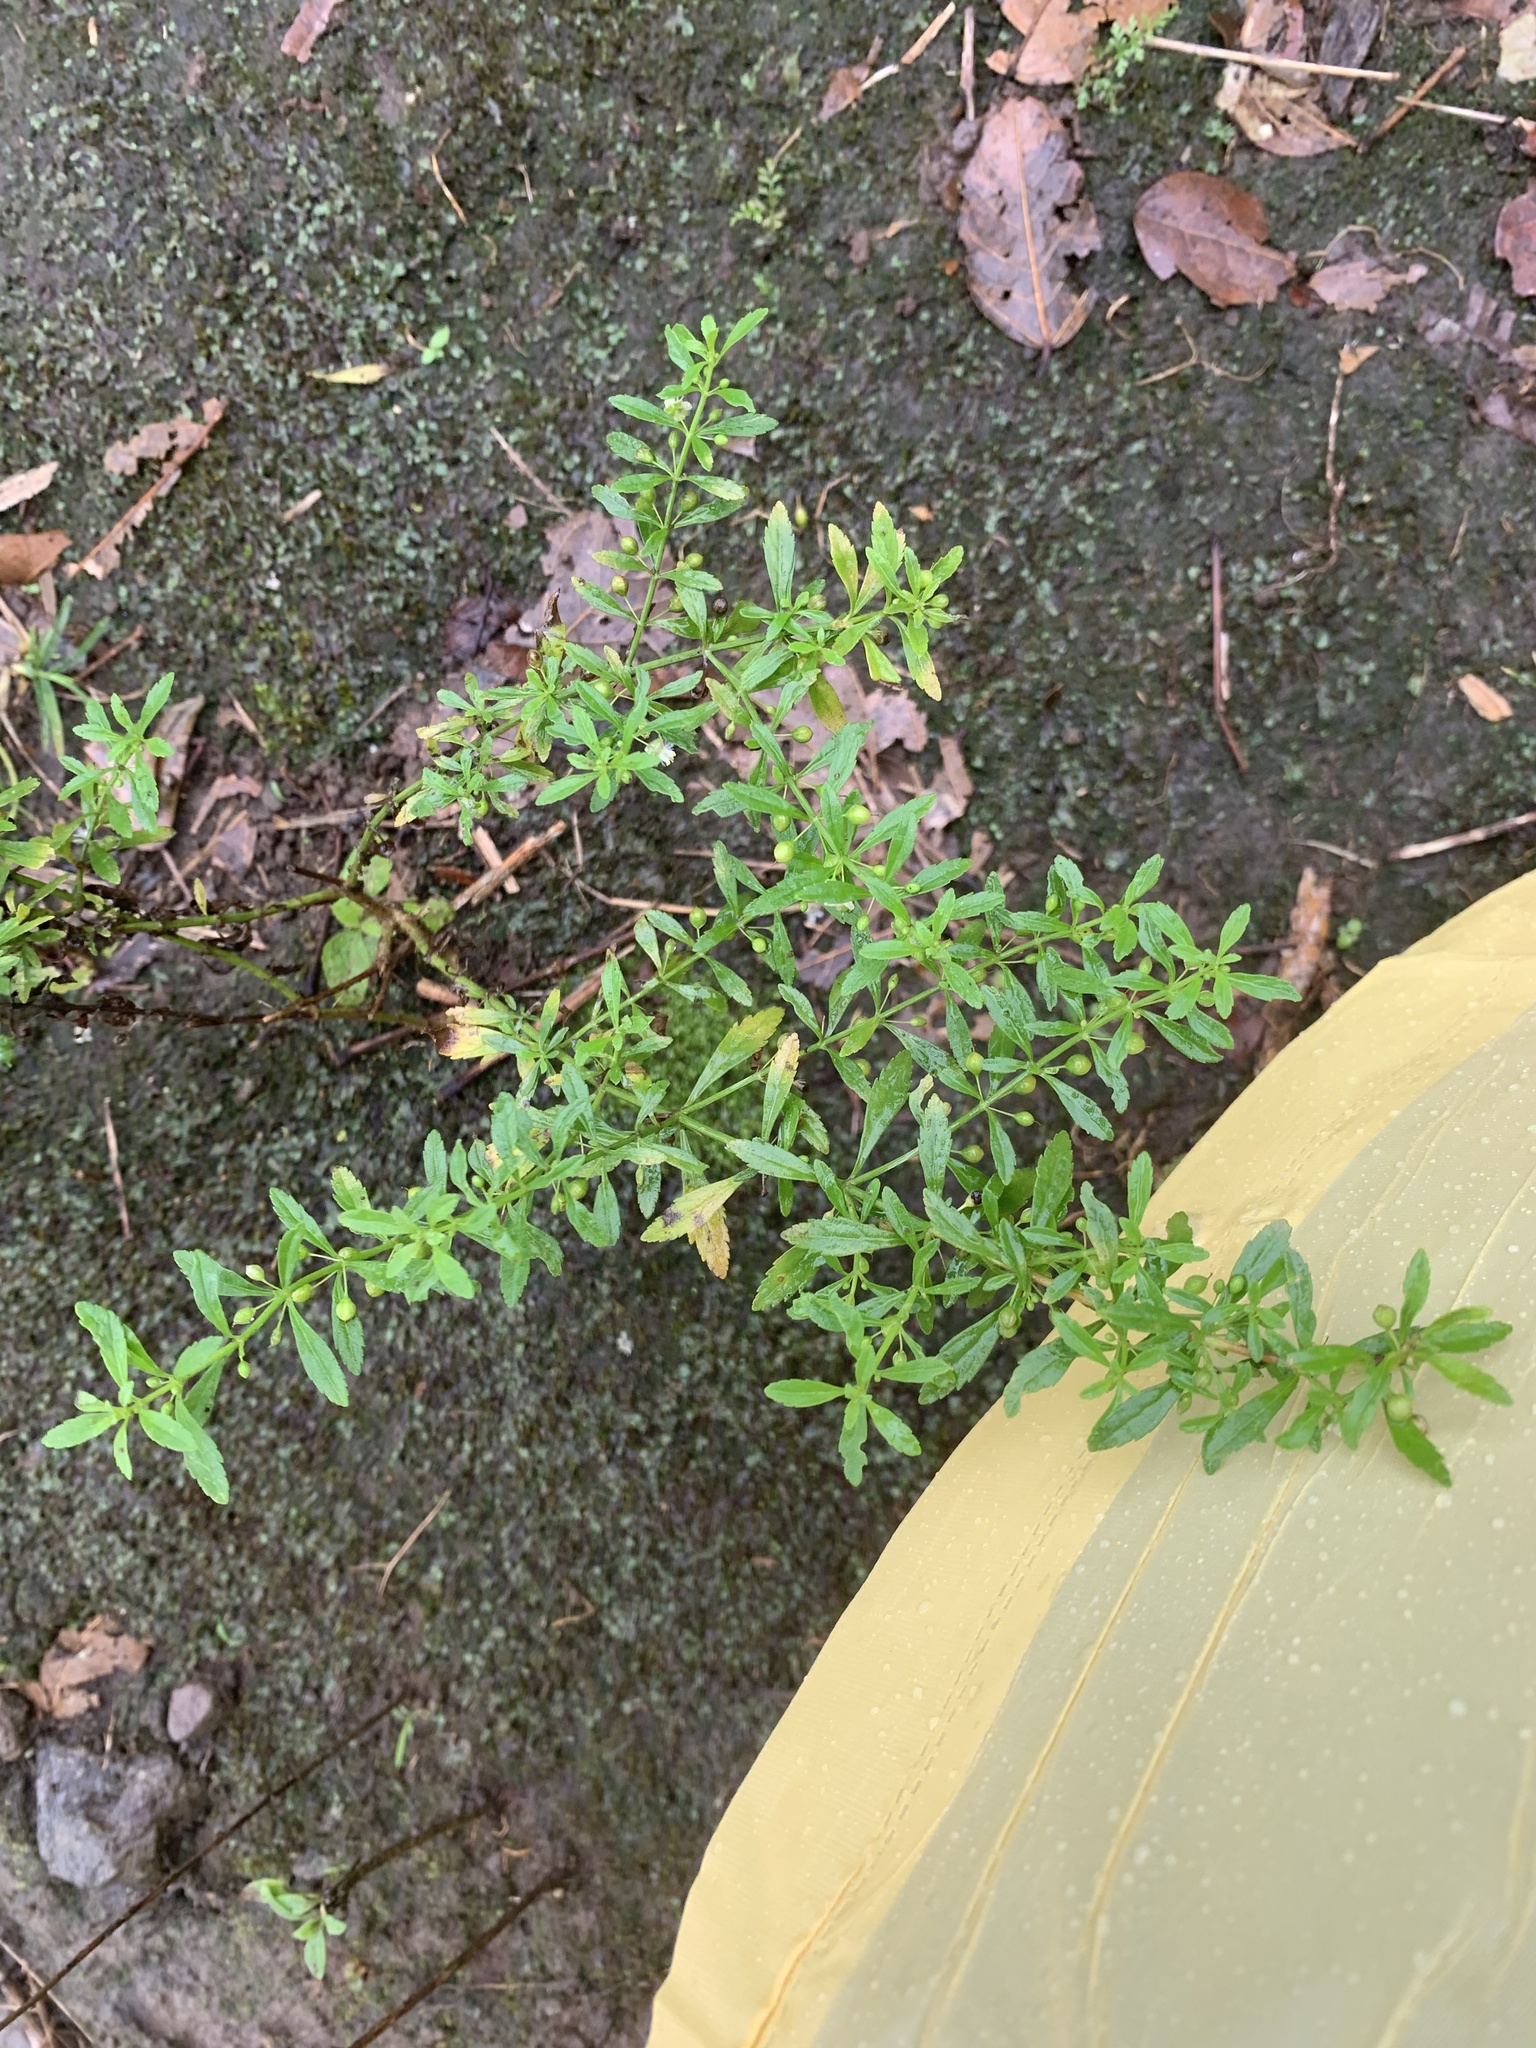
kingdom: Plantae
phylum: Tracheophyta
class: Magnoliopsida
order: Lamiales
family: Plantaginaceae
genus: Scoparia
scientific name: Scoparia dulcis
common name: Scoparia-weed
